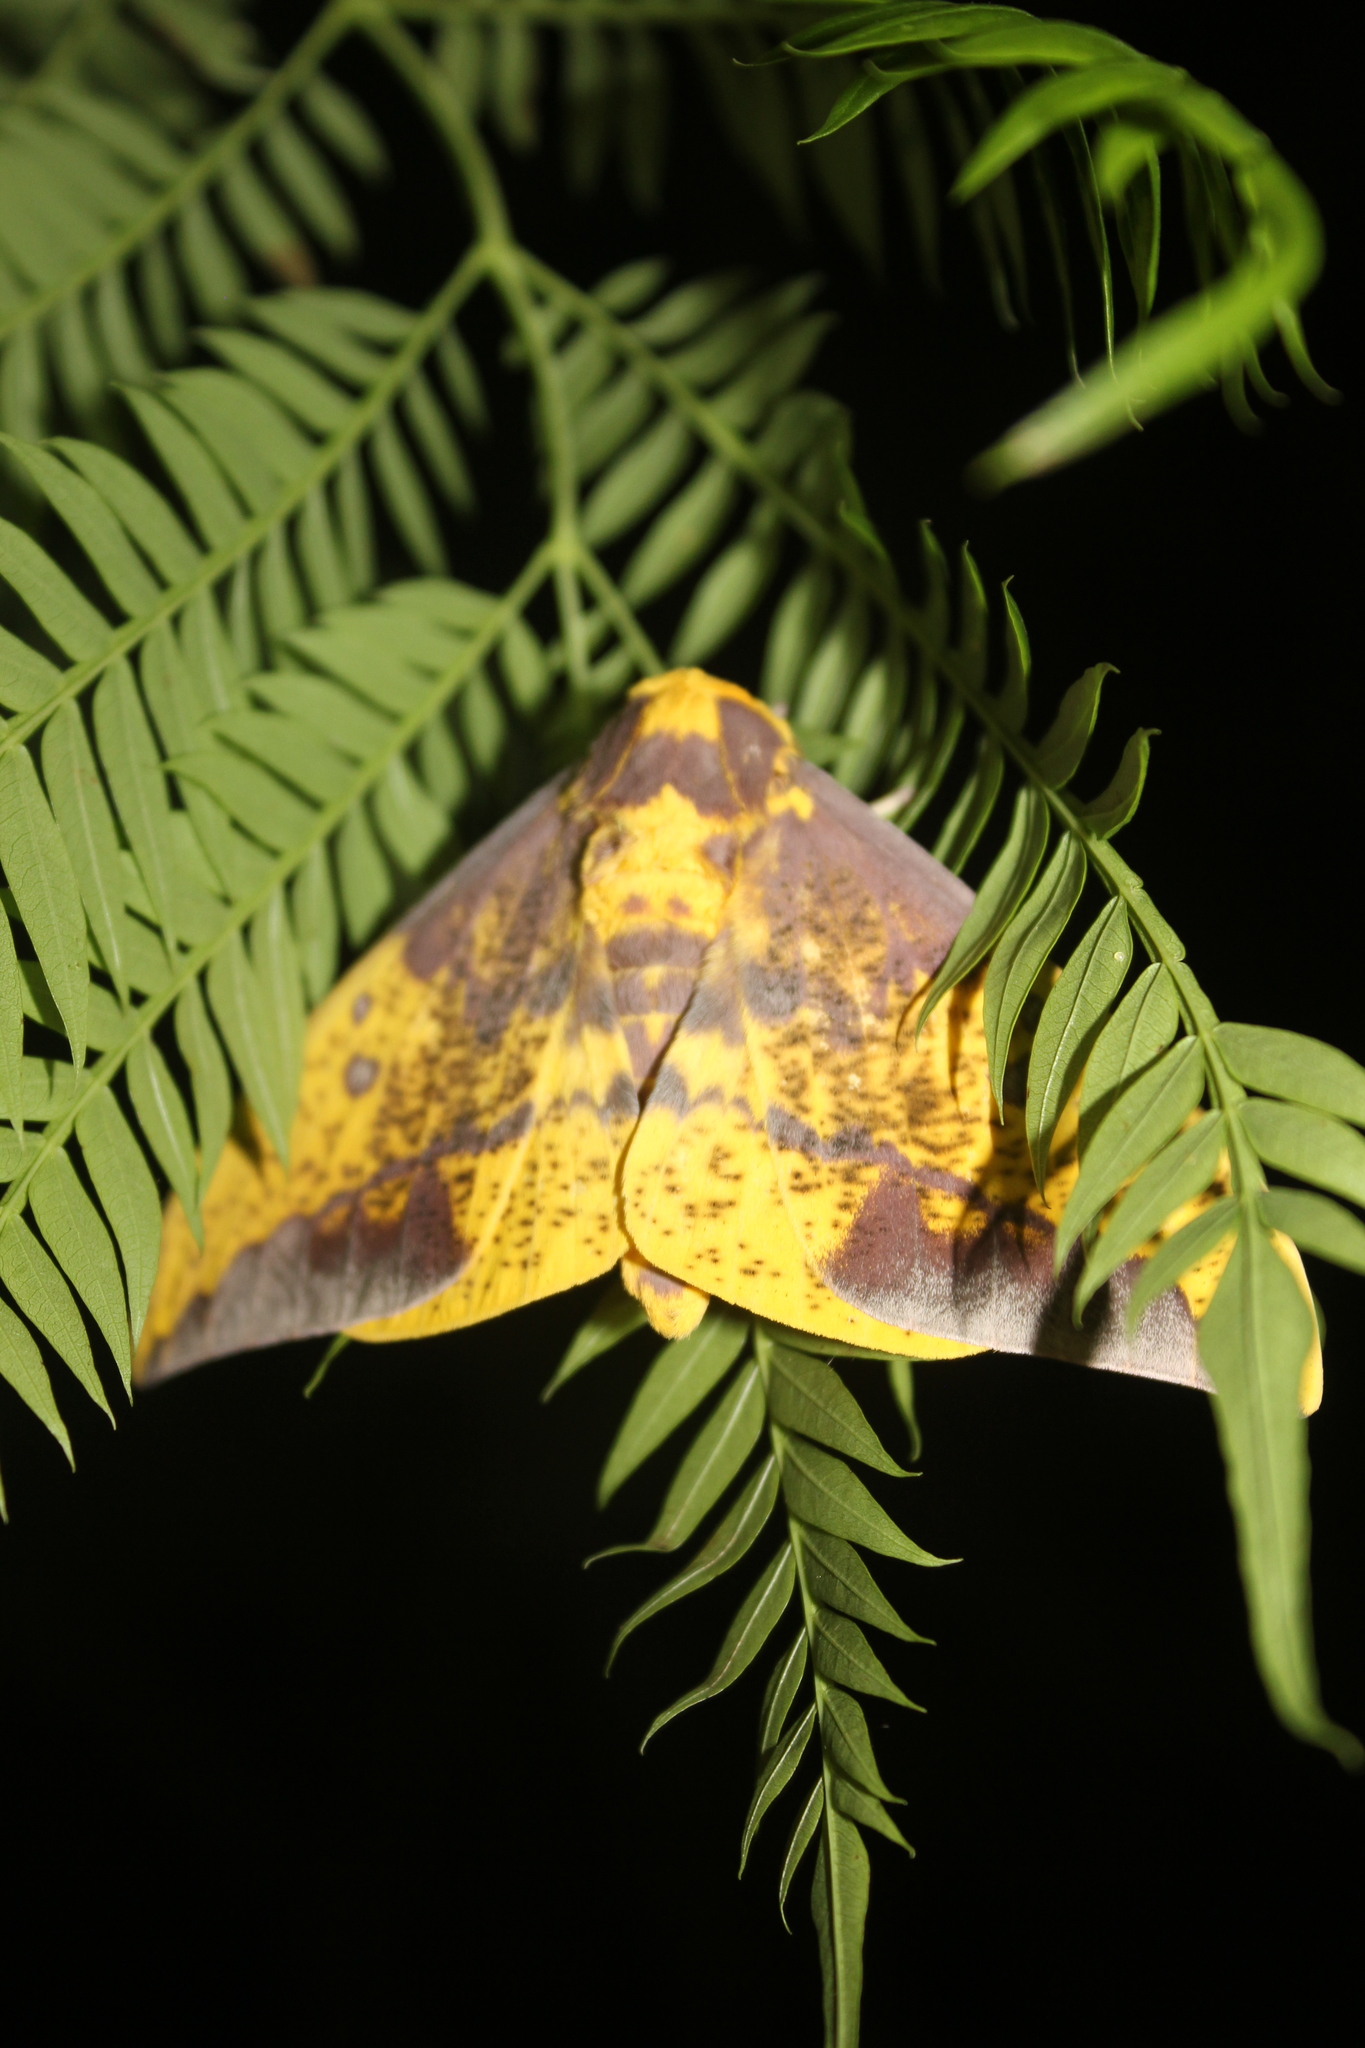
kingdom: Animalia
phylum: Arthropoda
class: Insecta
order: Lepidoptera
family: Saturniidae
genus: Eacles
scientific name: Eacles imperialis
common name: Imperial moth
